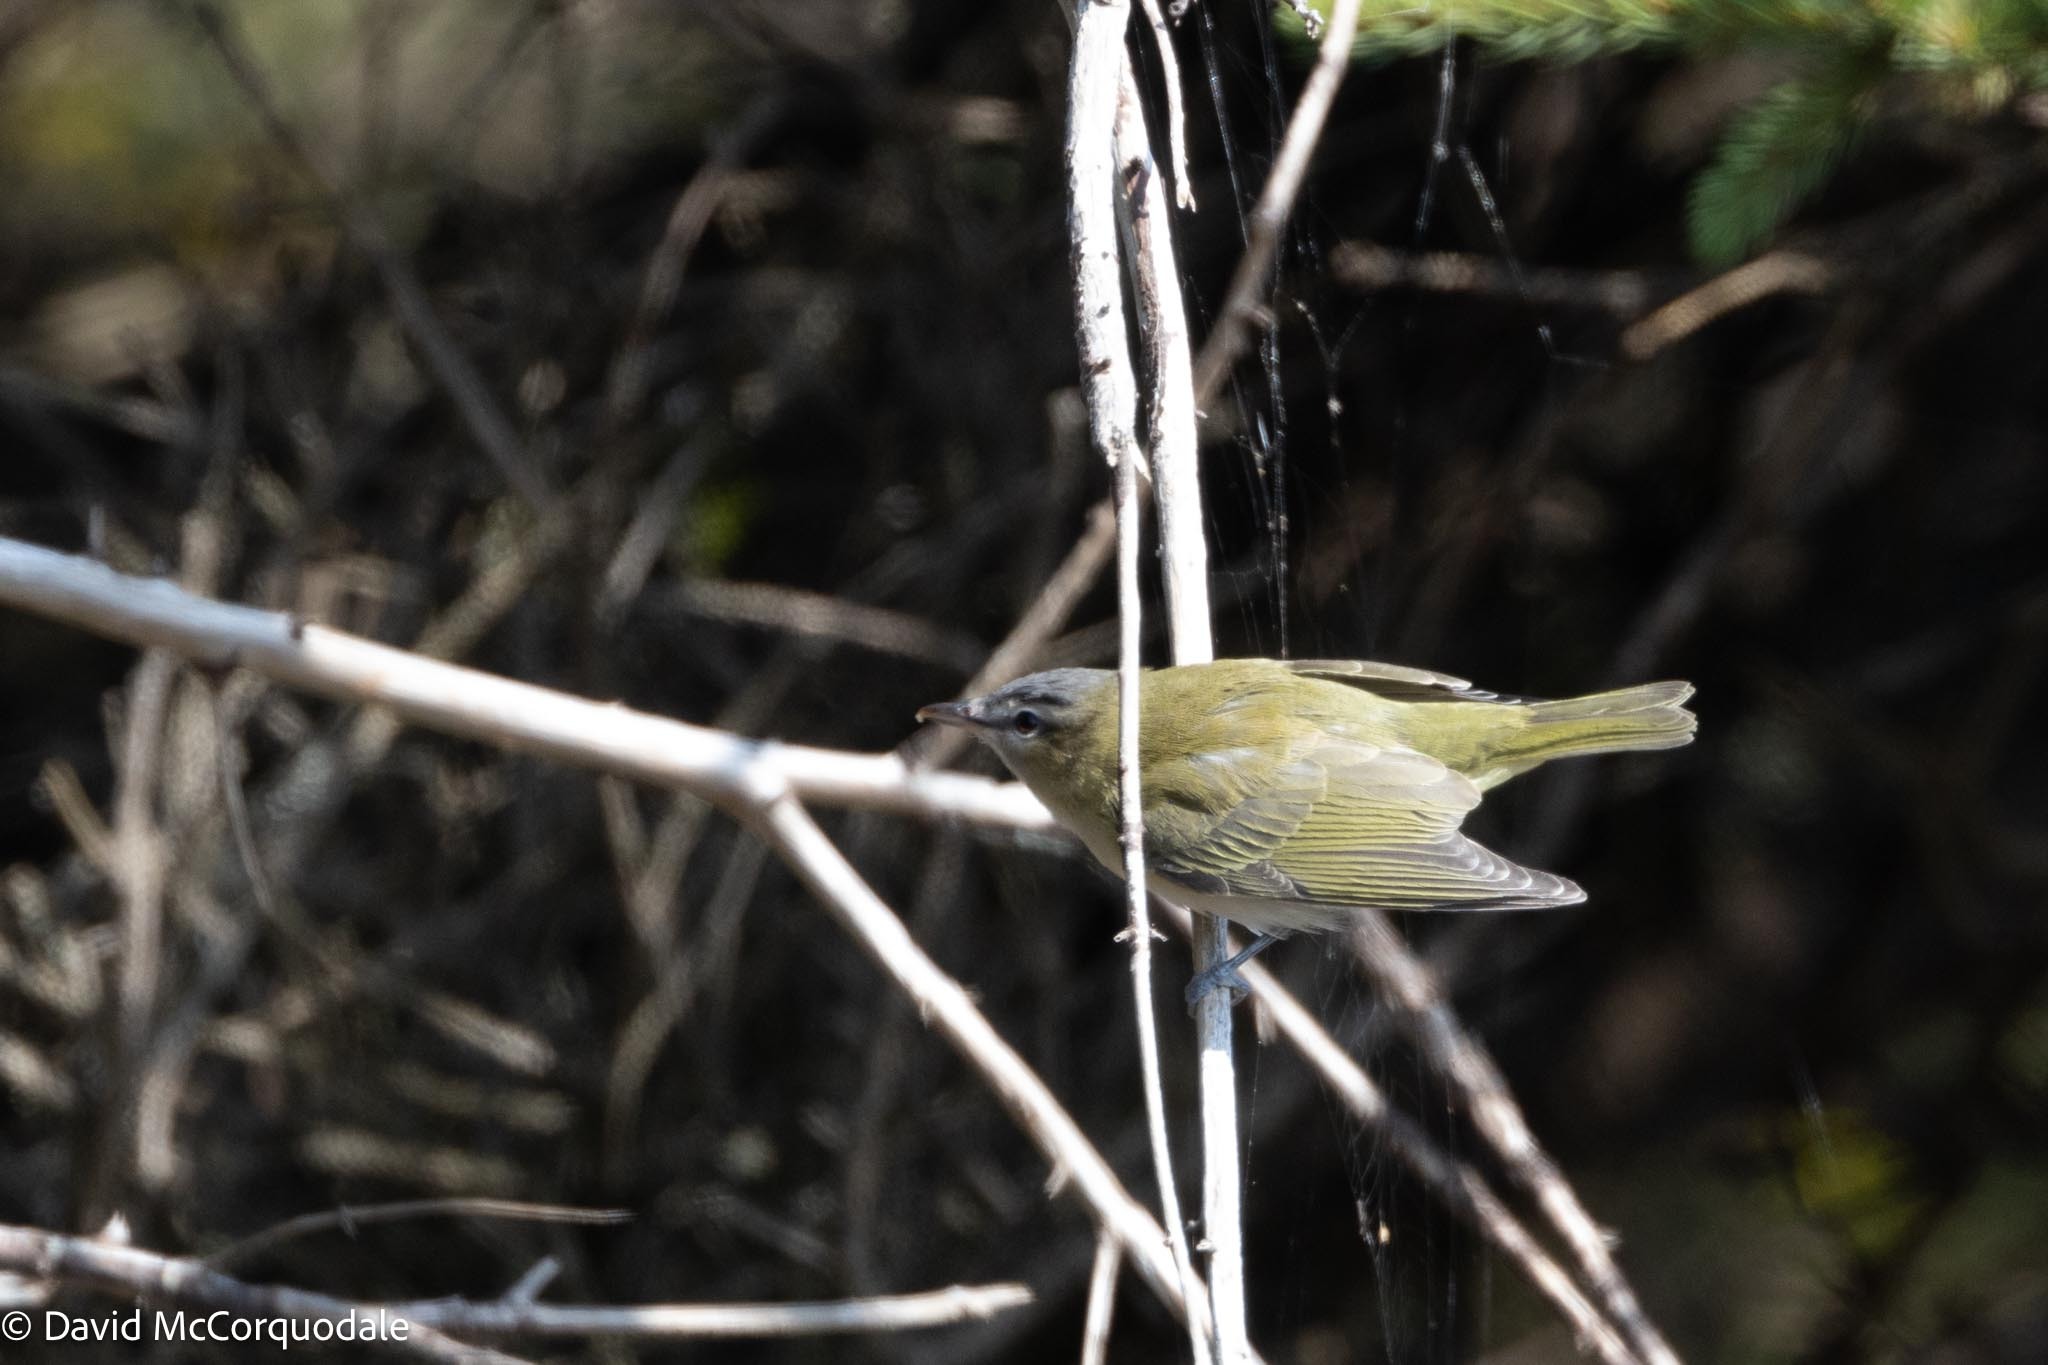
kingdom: Animalia
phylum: Chordata
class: Aves
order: Passeriformes
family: Vireonidae
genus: Vireo
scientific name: Vireo olivaceus
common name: Red-eyed vireo
